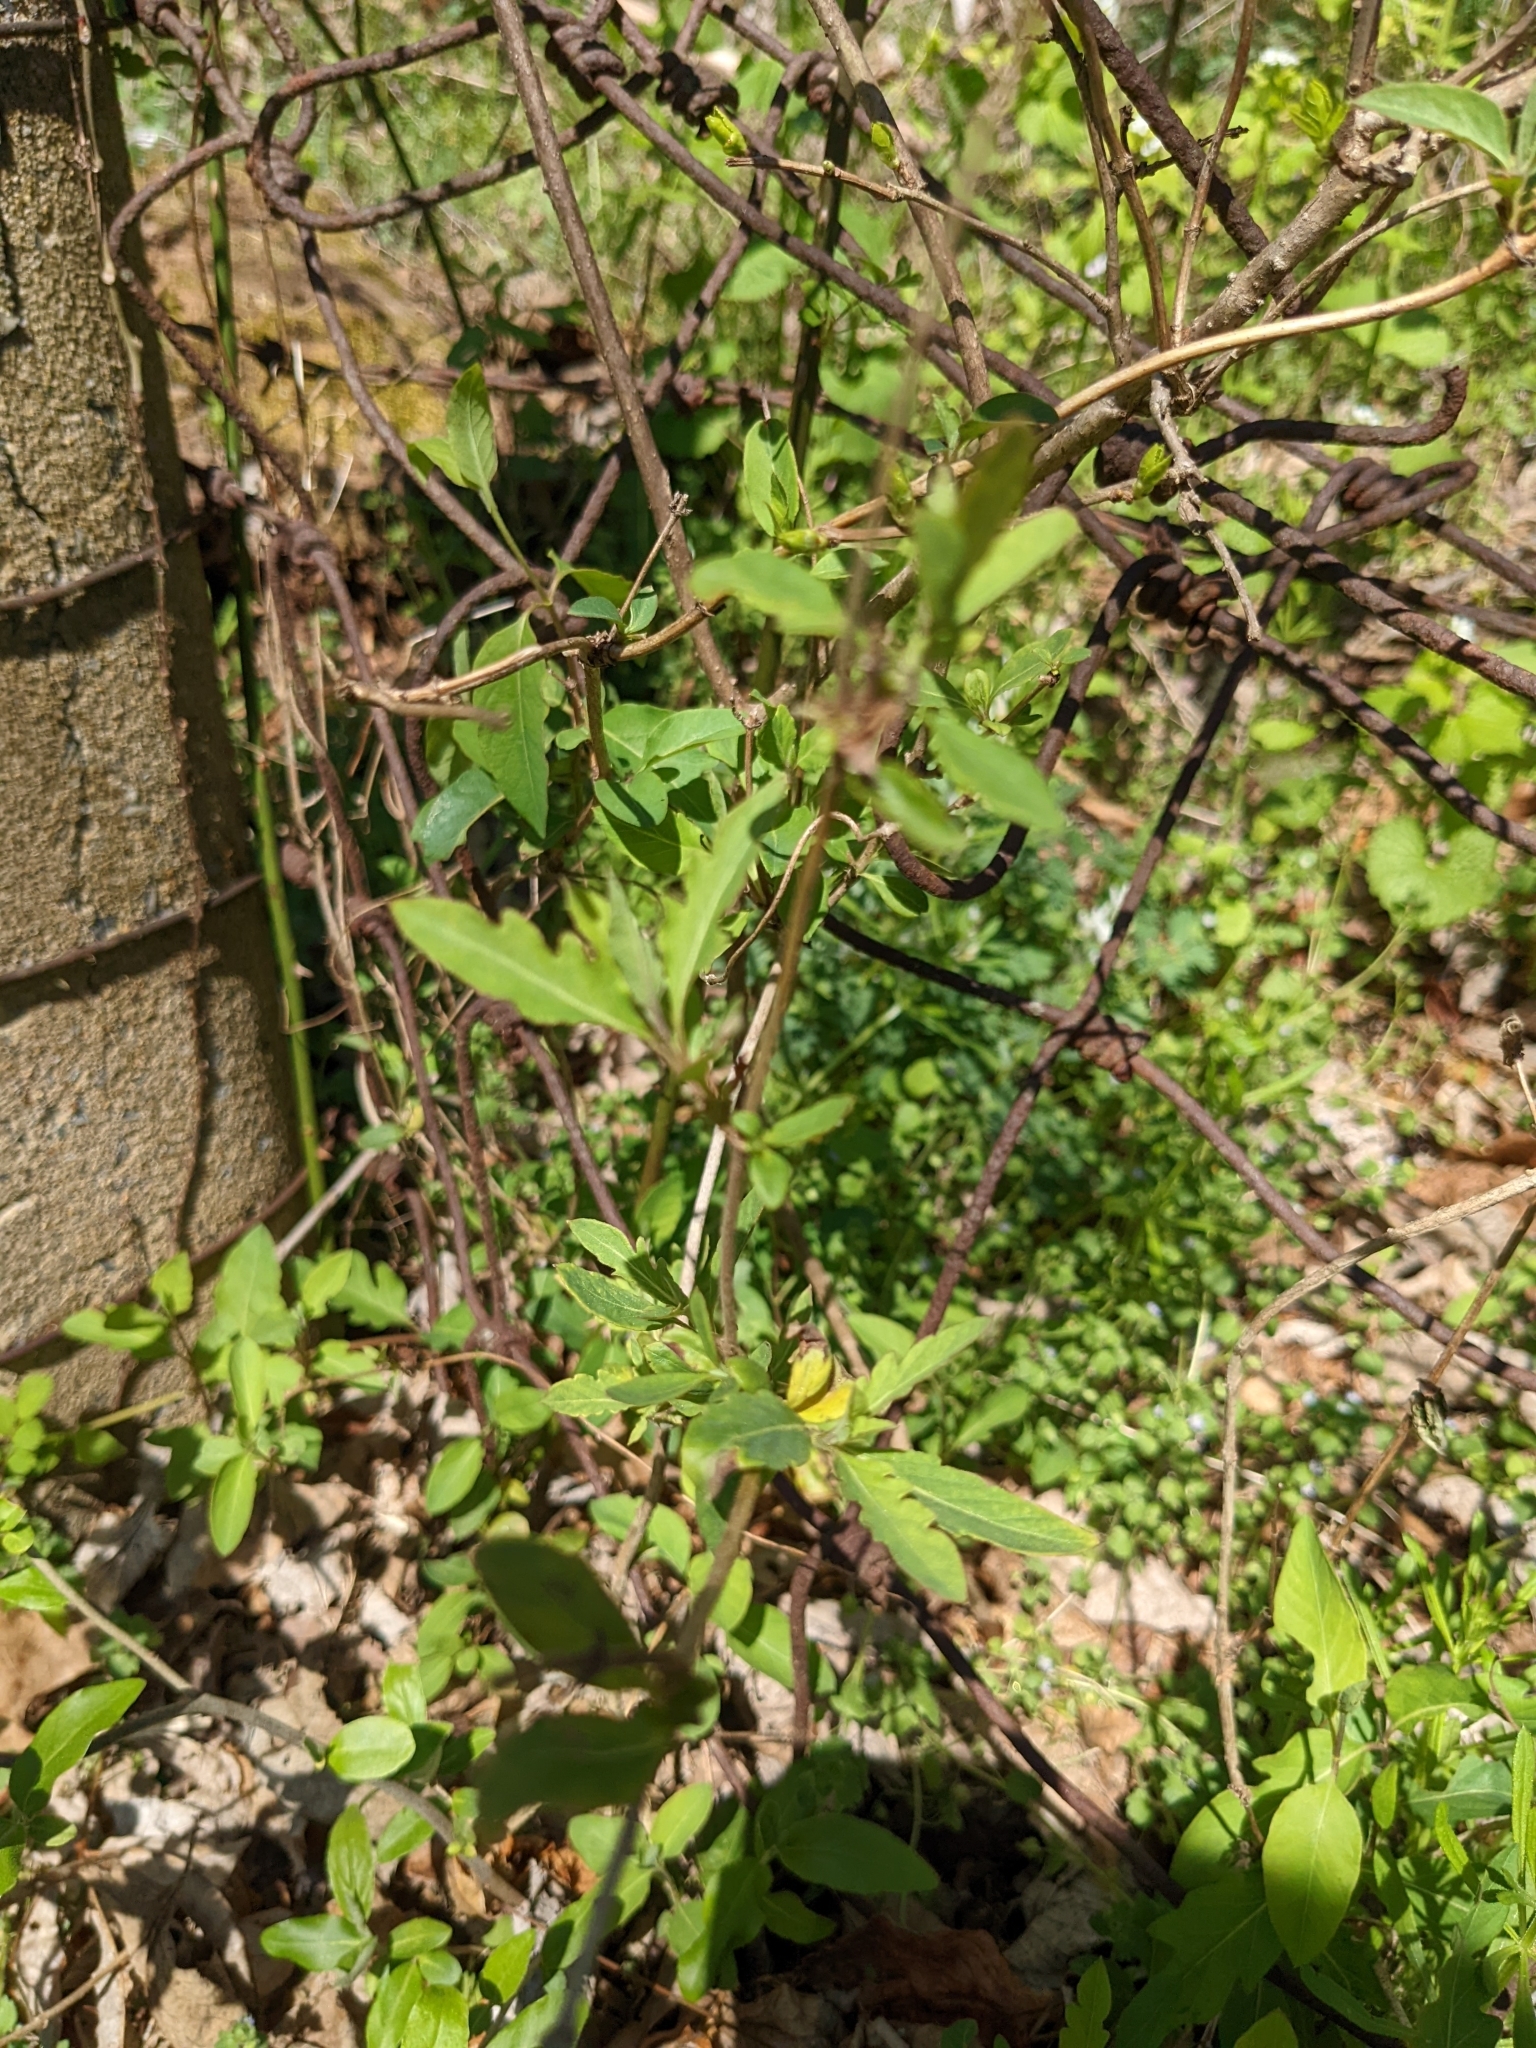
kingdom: Plantae
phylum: Tracheophyta
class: Magnoliopsida
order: Dipsacales
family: Caprifoliaceae
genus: Lonicera
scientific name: Lonicera japonica
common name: Japanese honeysuckle
